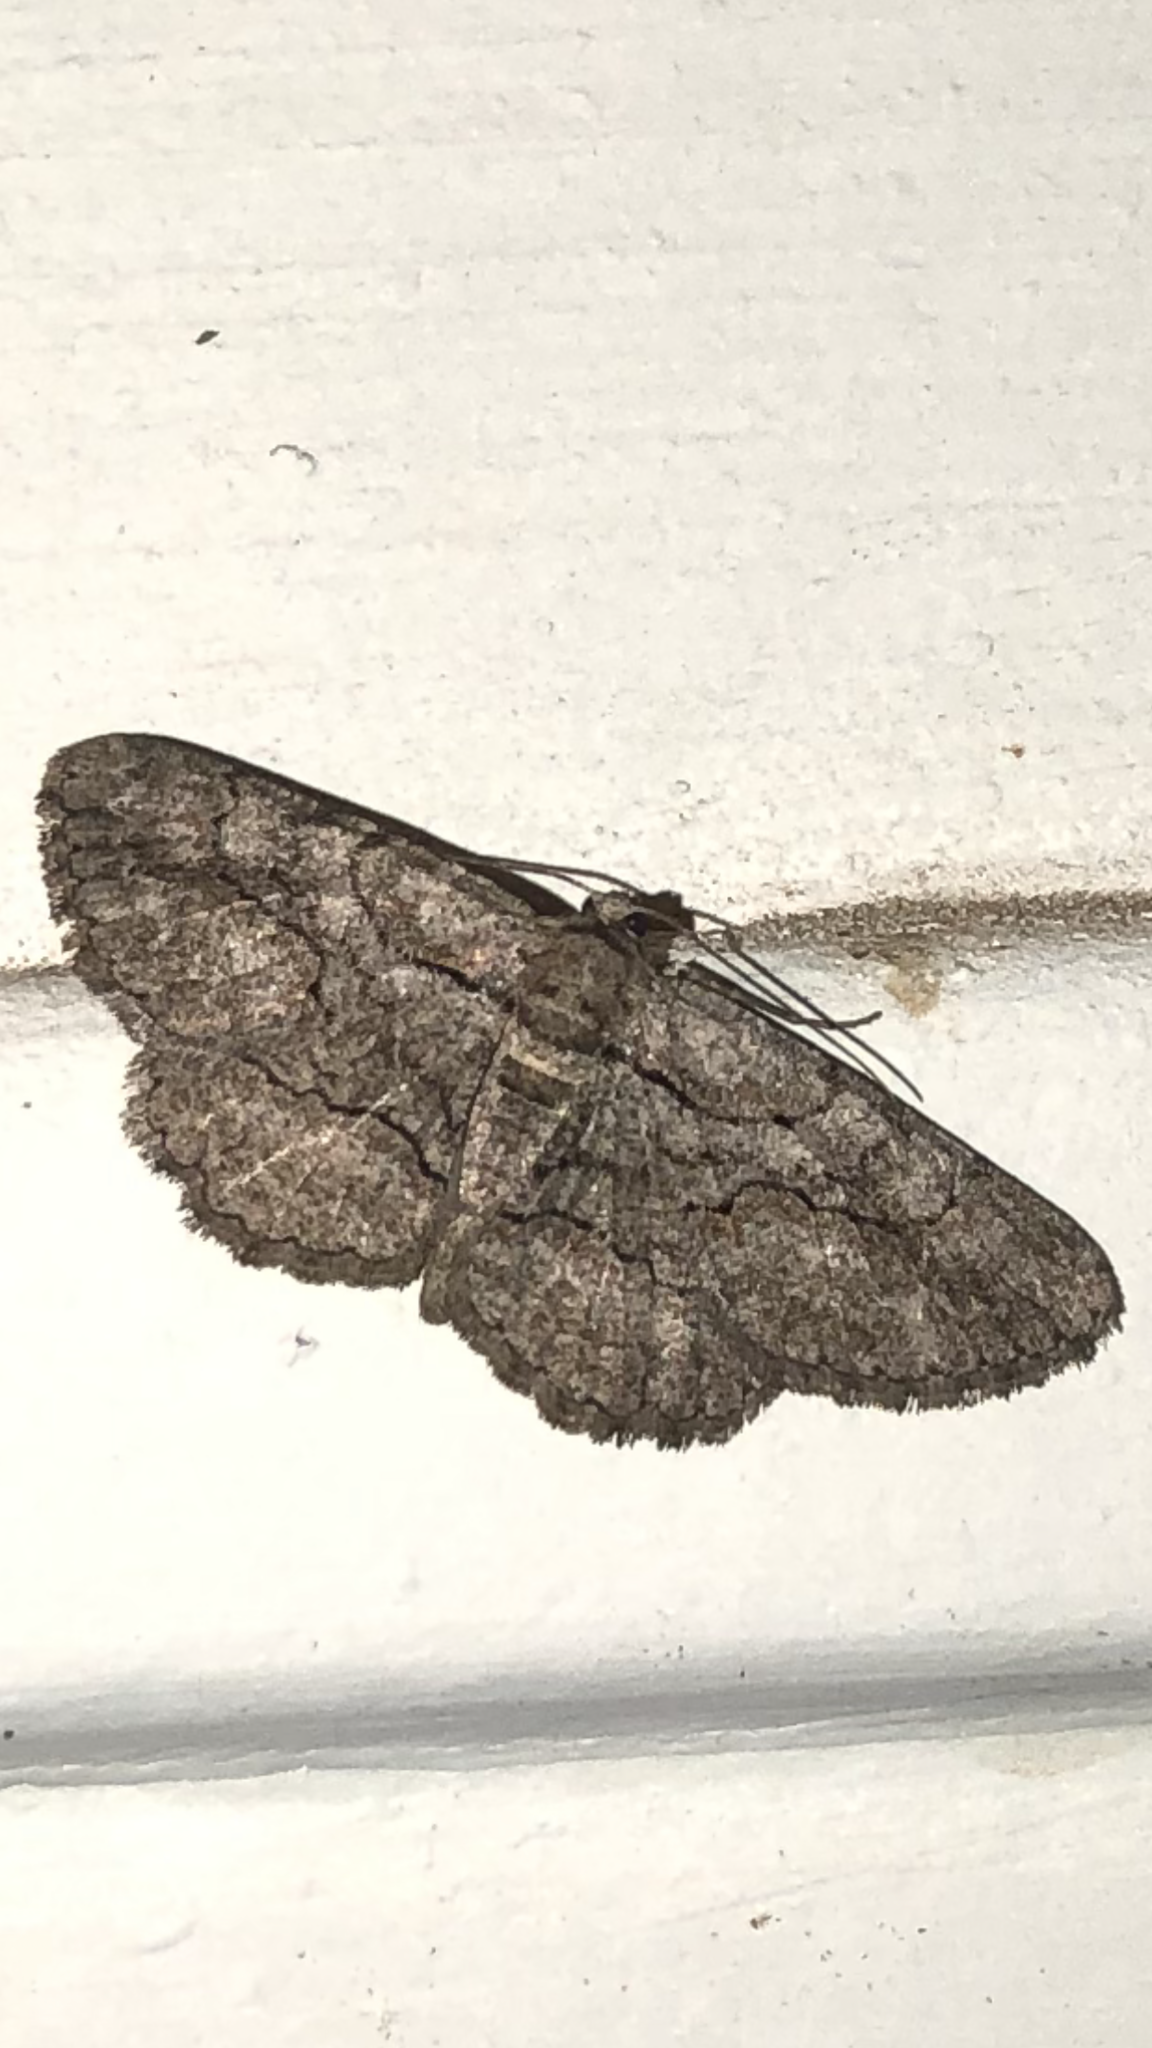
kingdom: Animalia
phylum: Arthropoda
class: Insecta
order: Lepidoptera
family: Geometridae
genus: Anavitrinella
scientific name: Anavitrinella pampinaria
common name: Common gray
